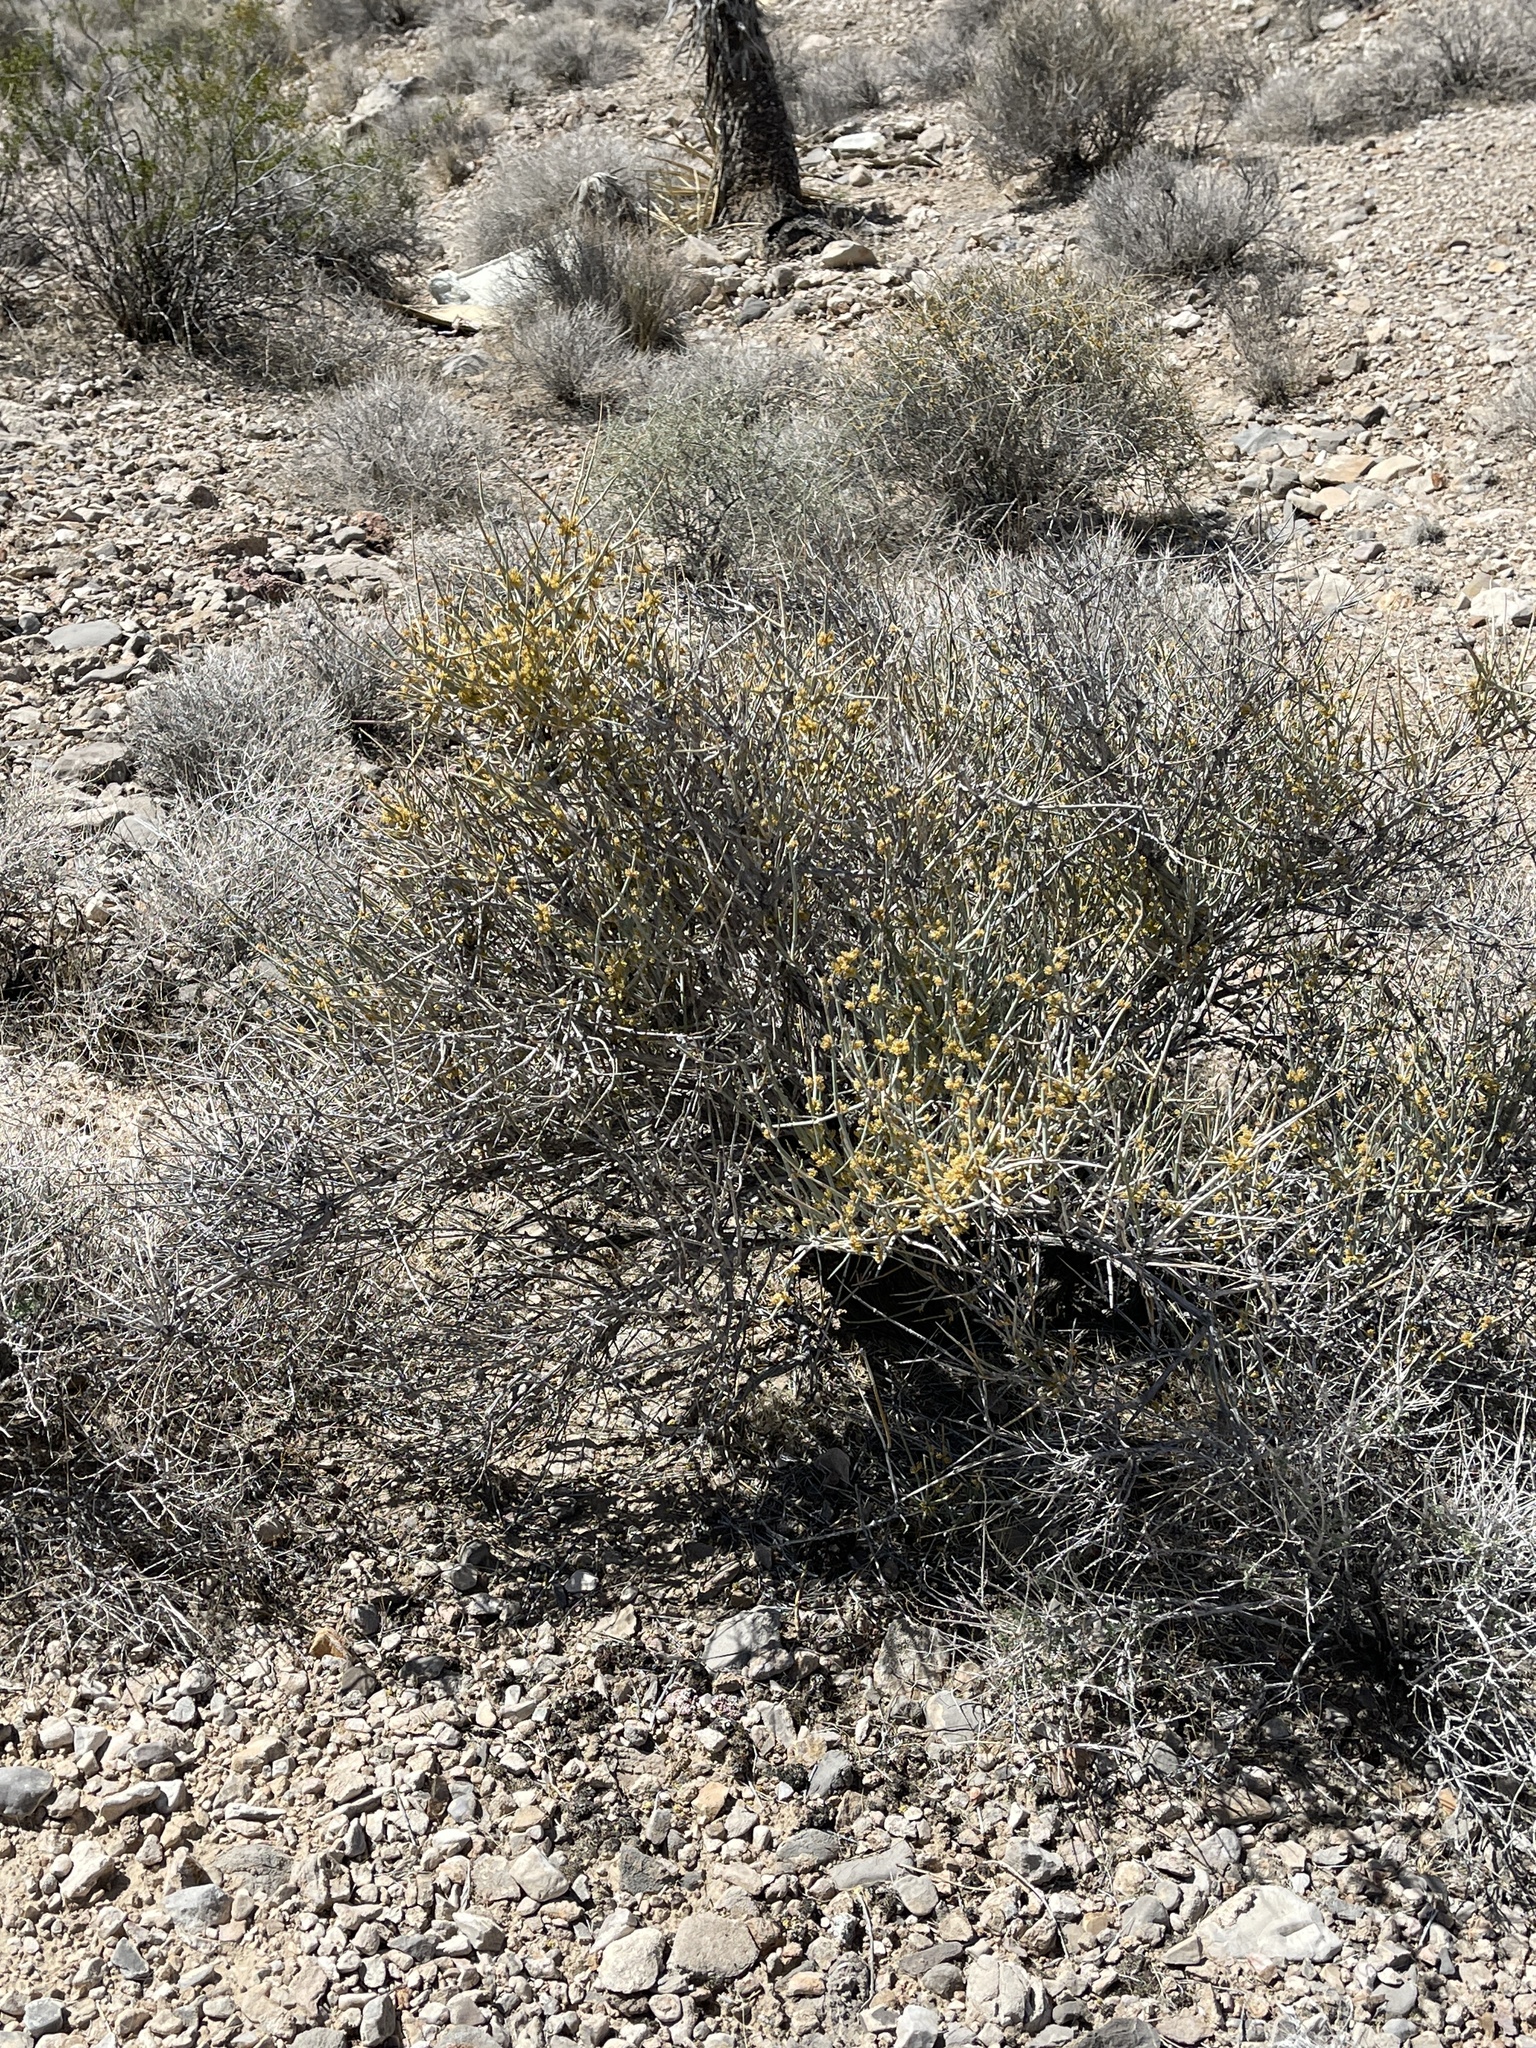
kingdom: Plantae
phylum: Tracheophyta
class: Gnetopsida
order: Ephedrales
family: Ephedraceae
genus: Ephedra
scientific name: Ephedra nevadensis
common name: Gray ephedra
